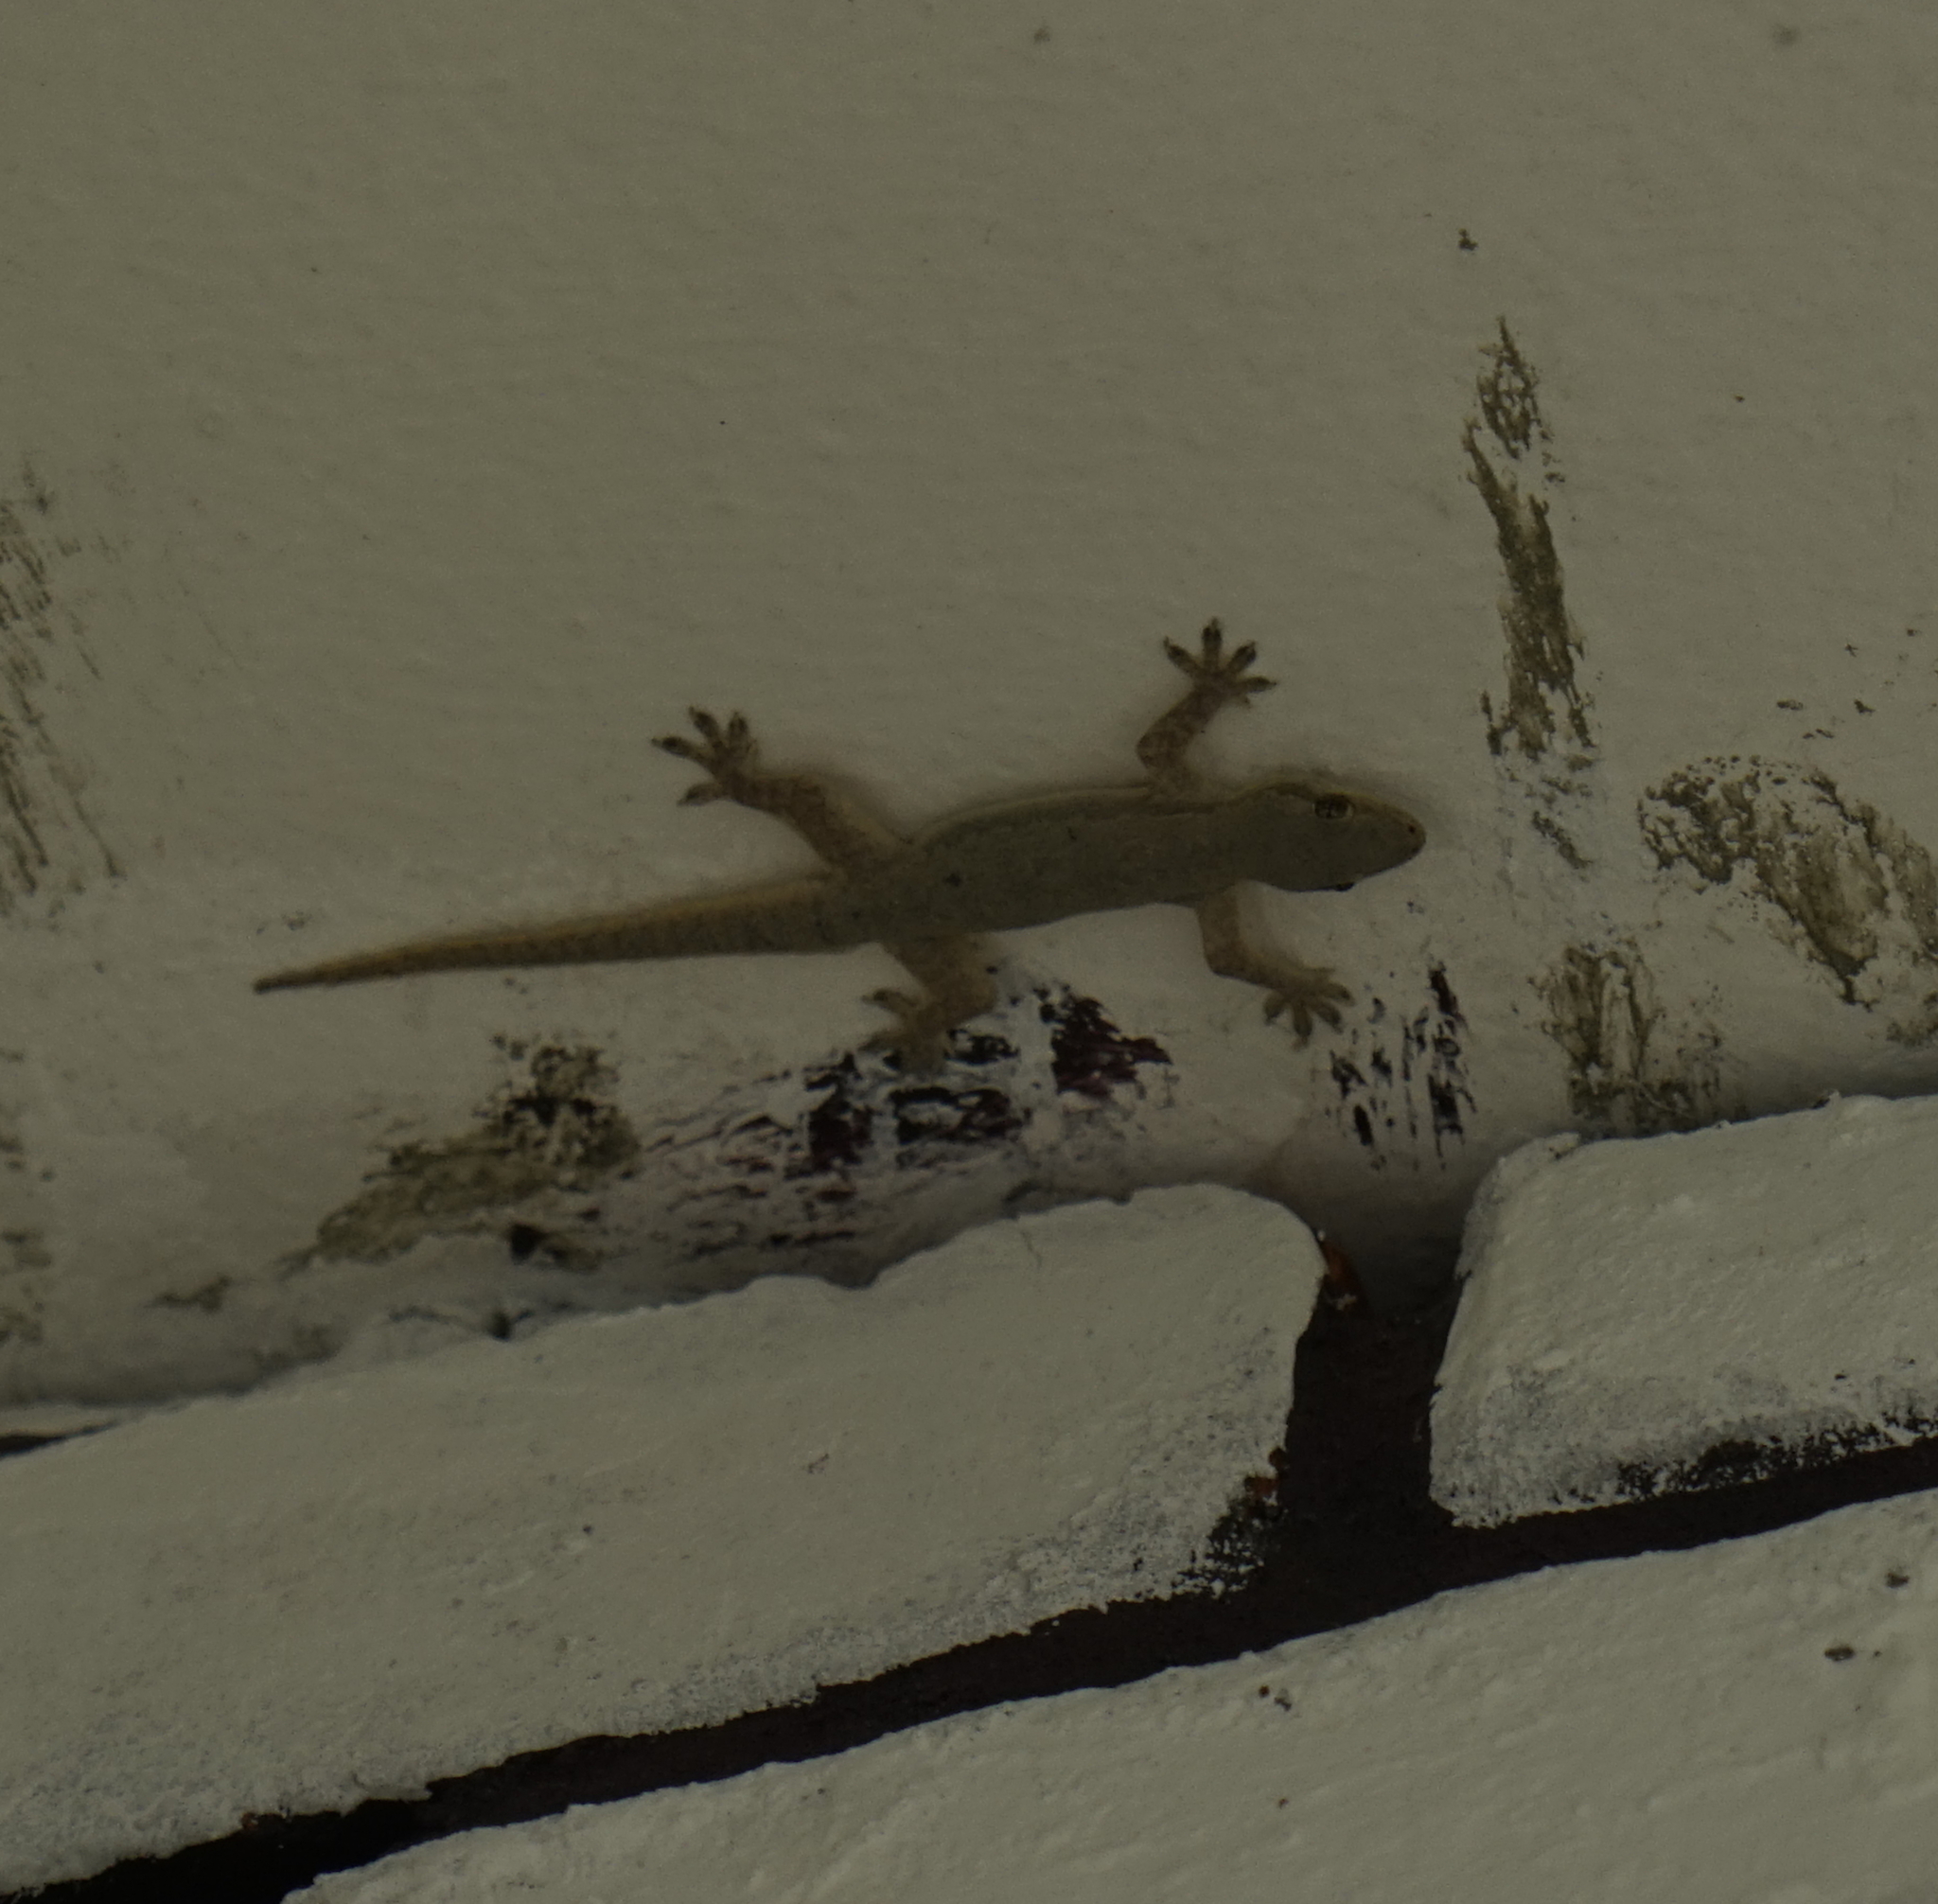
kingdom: Animalia
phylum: Chordata
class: Squamata
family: Gekkonidae
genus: Hemidactylus
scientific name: Hemidactylus platyurus
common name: Flat-tailed house gecko
